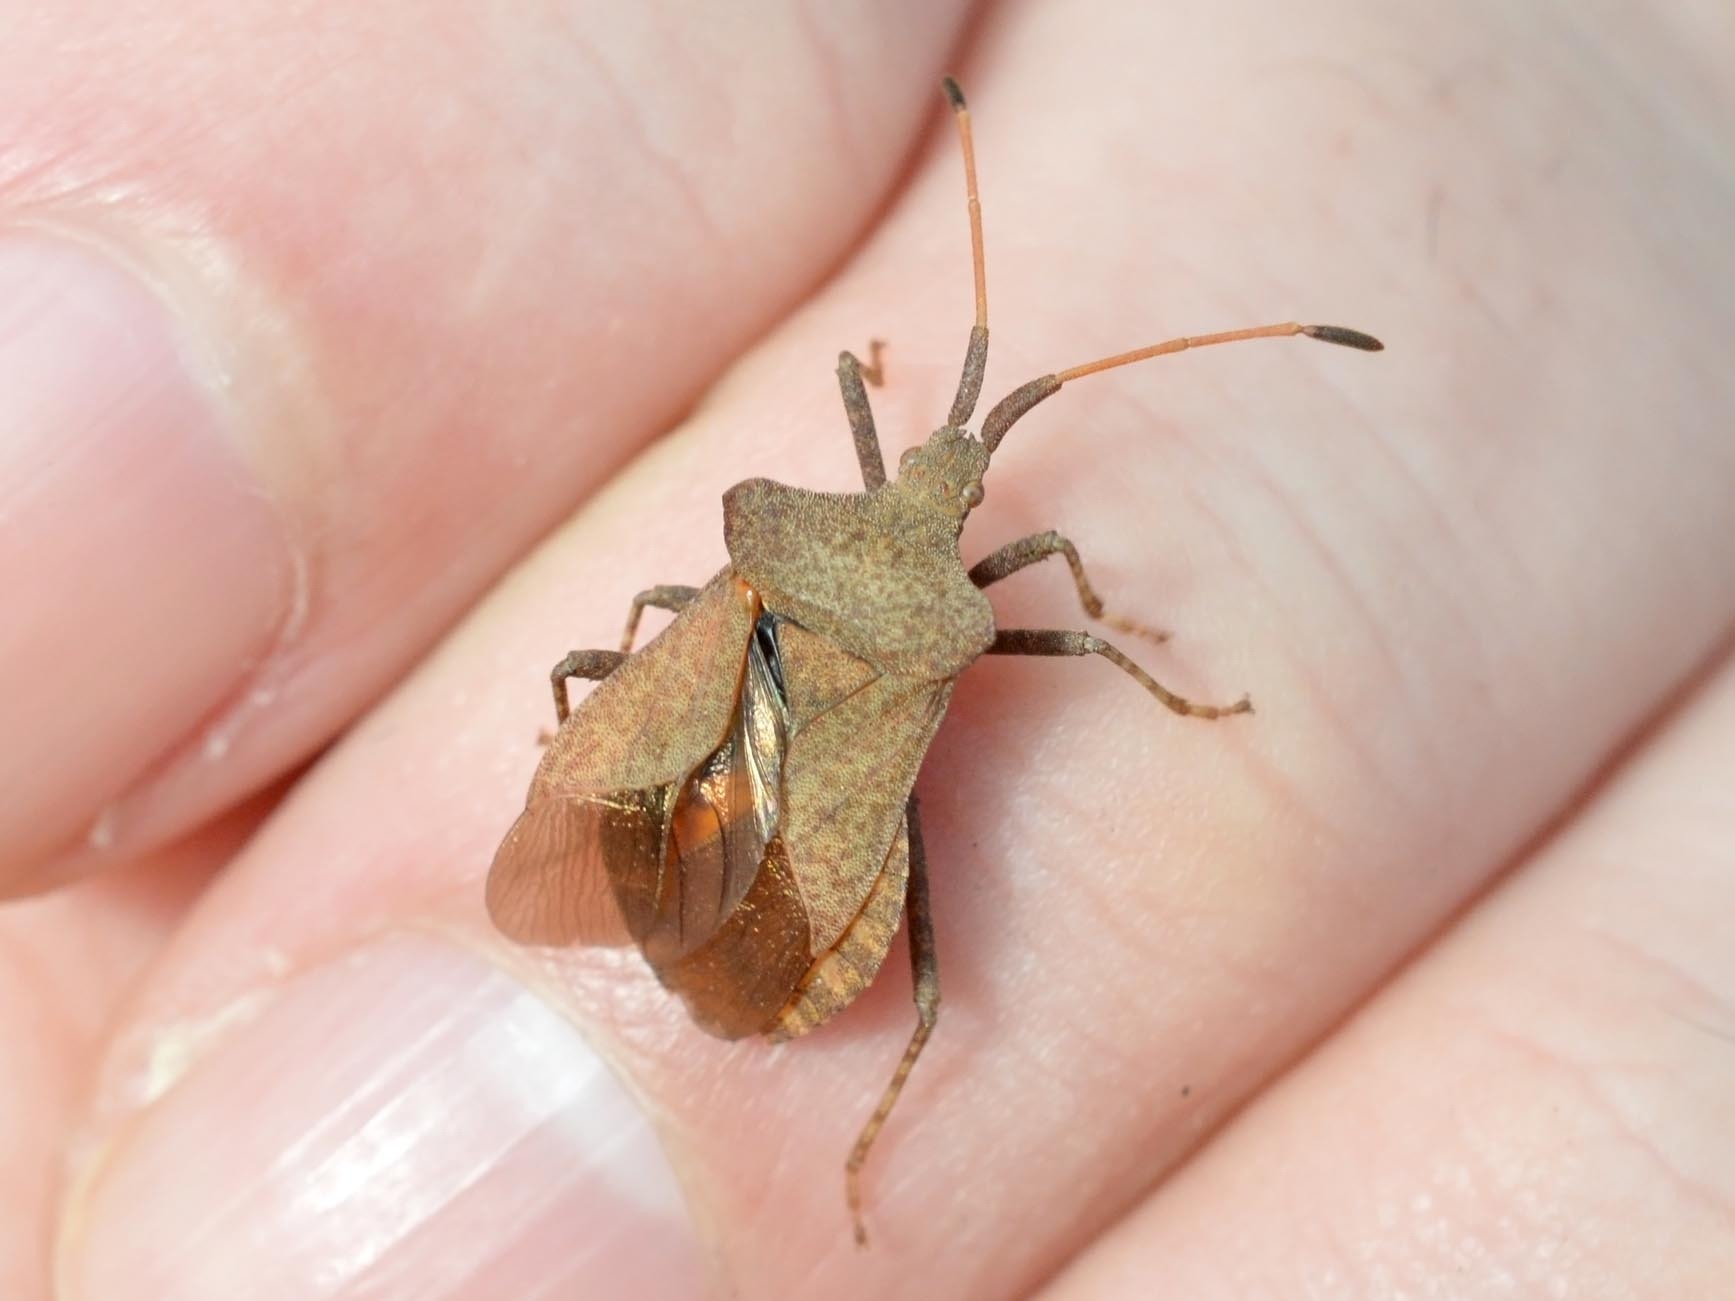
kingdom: Animalia
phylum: Arthropoda
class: Insecta
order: Hemiptera
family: Coreidae
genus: Coreus
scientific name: Coreus marginatus
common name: Dock bug
